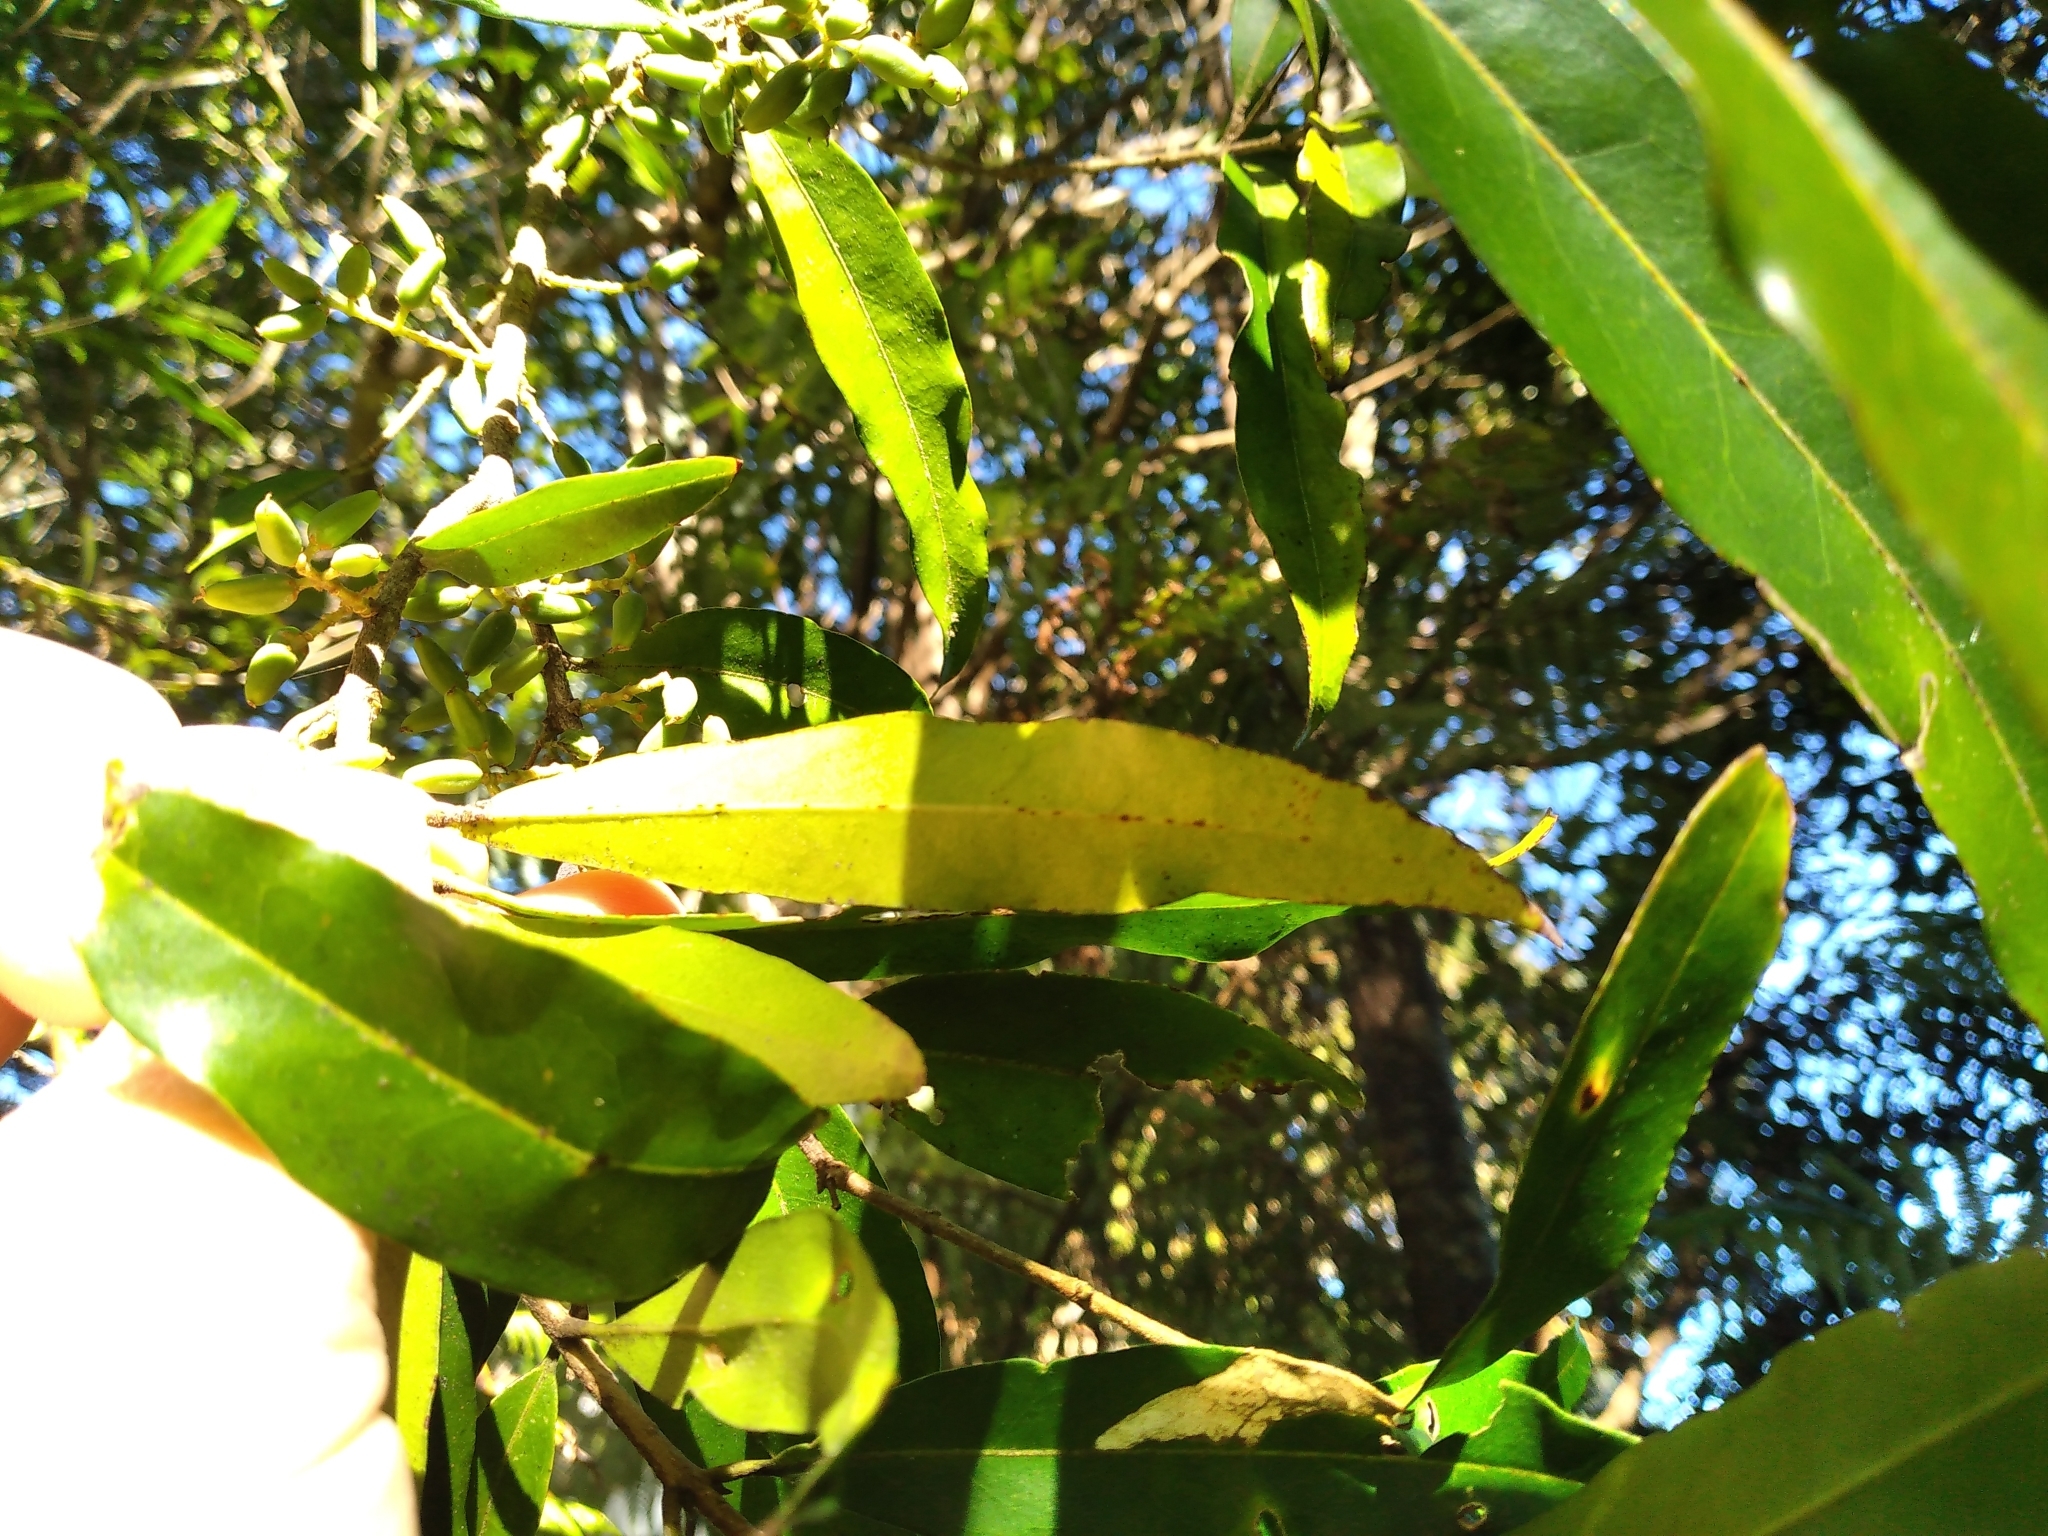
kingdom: Plantae
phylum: Tracheophyta
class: Magnoliopsida
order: Lamiales
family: Oleaceae
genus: Nestegis
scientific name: Nestegis lanceolata
